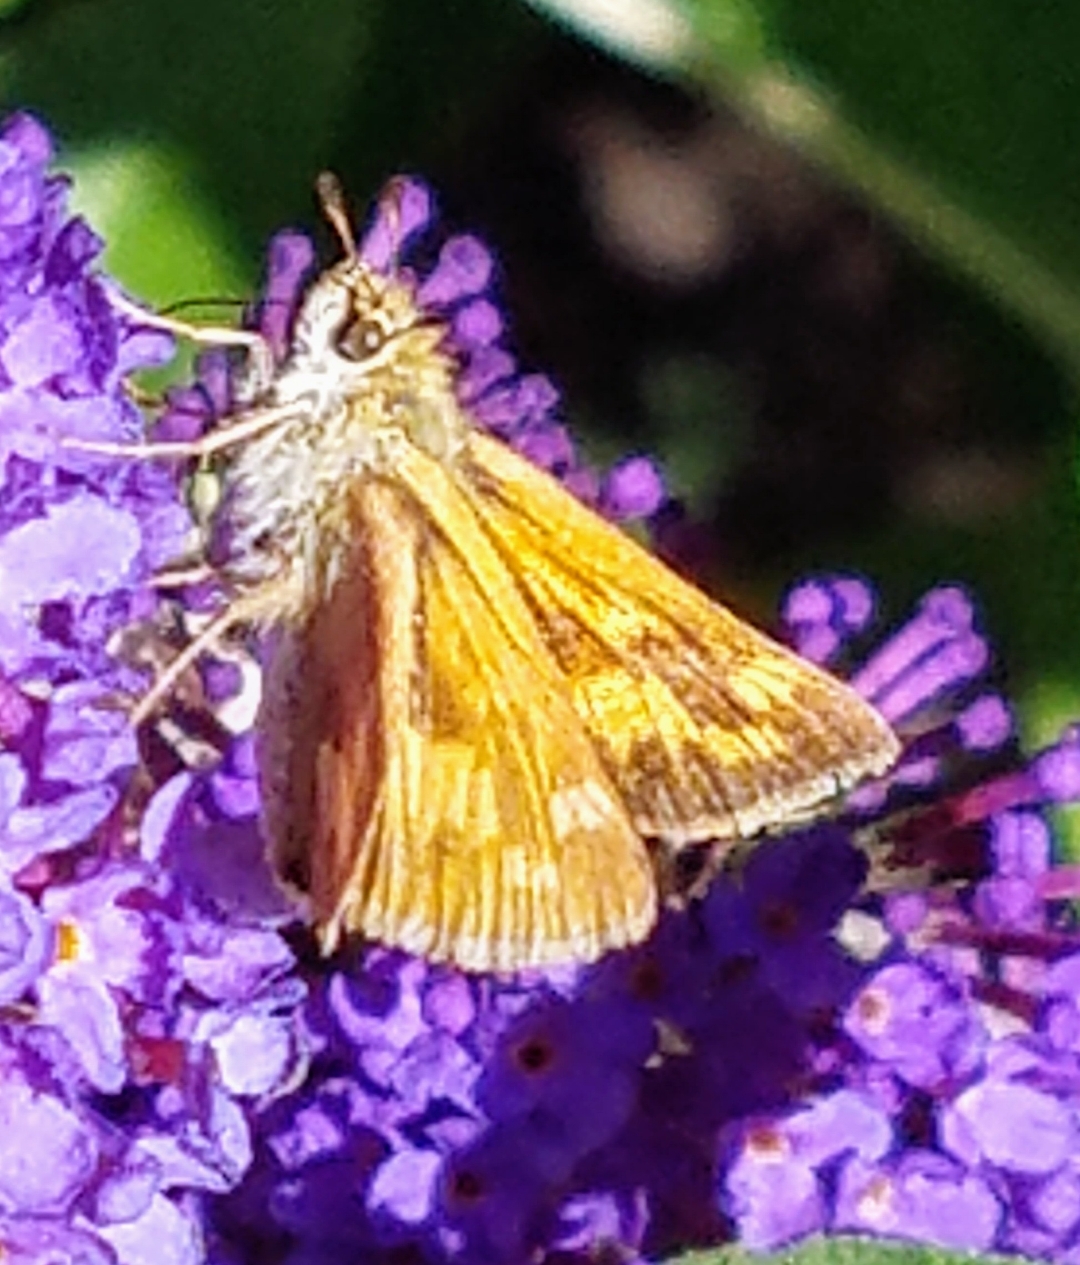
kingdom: Animalia
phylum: Arthropoda
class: Insecta
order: Lepidoptera
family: Hesperiidae
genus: Ochlodes
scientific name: Ochlodes sylvanoides
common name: Woodland skipper
